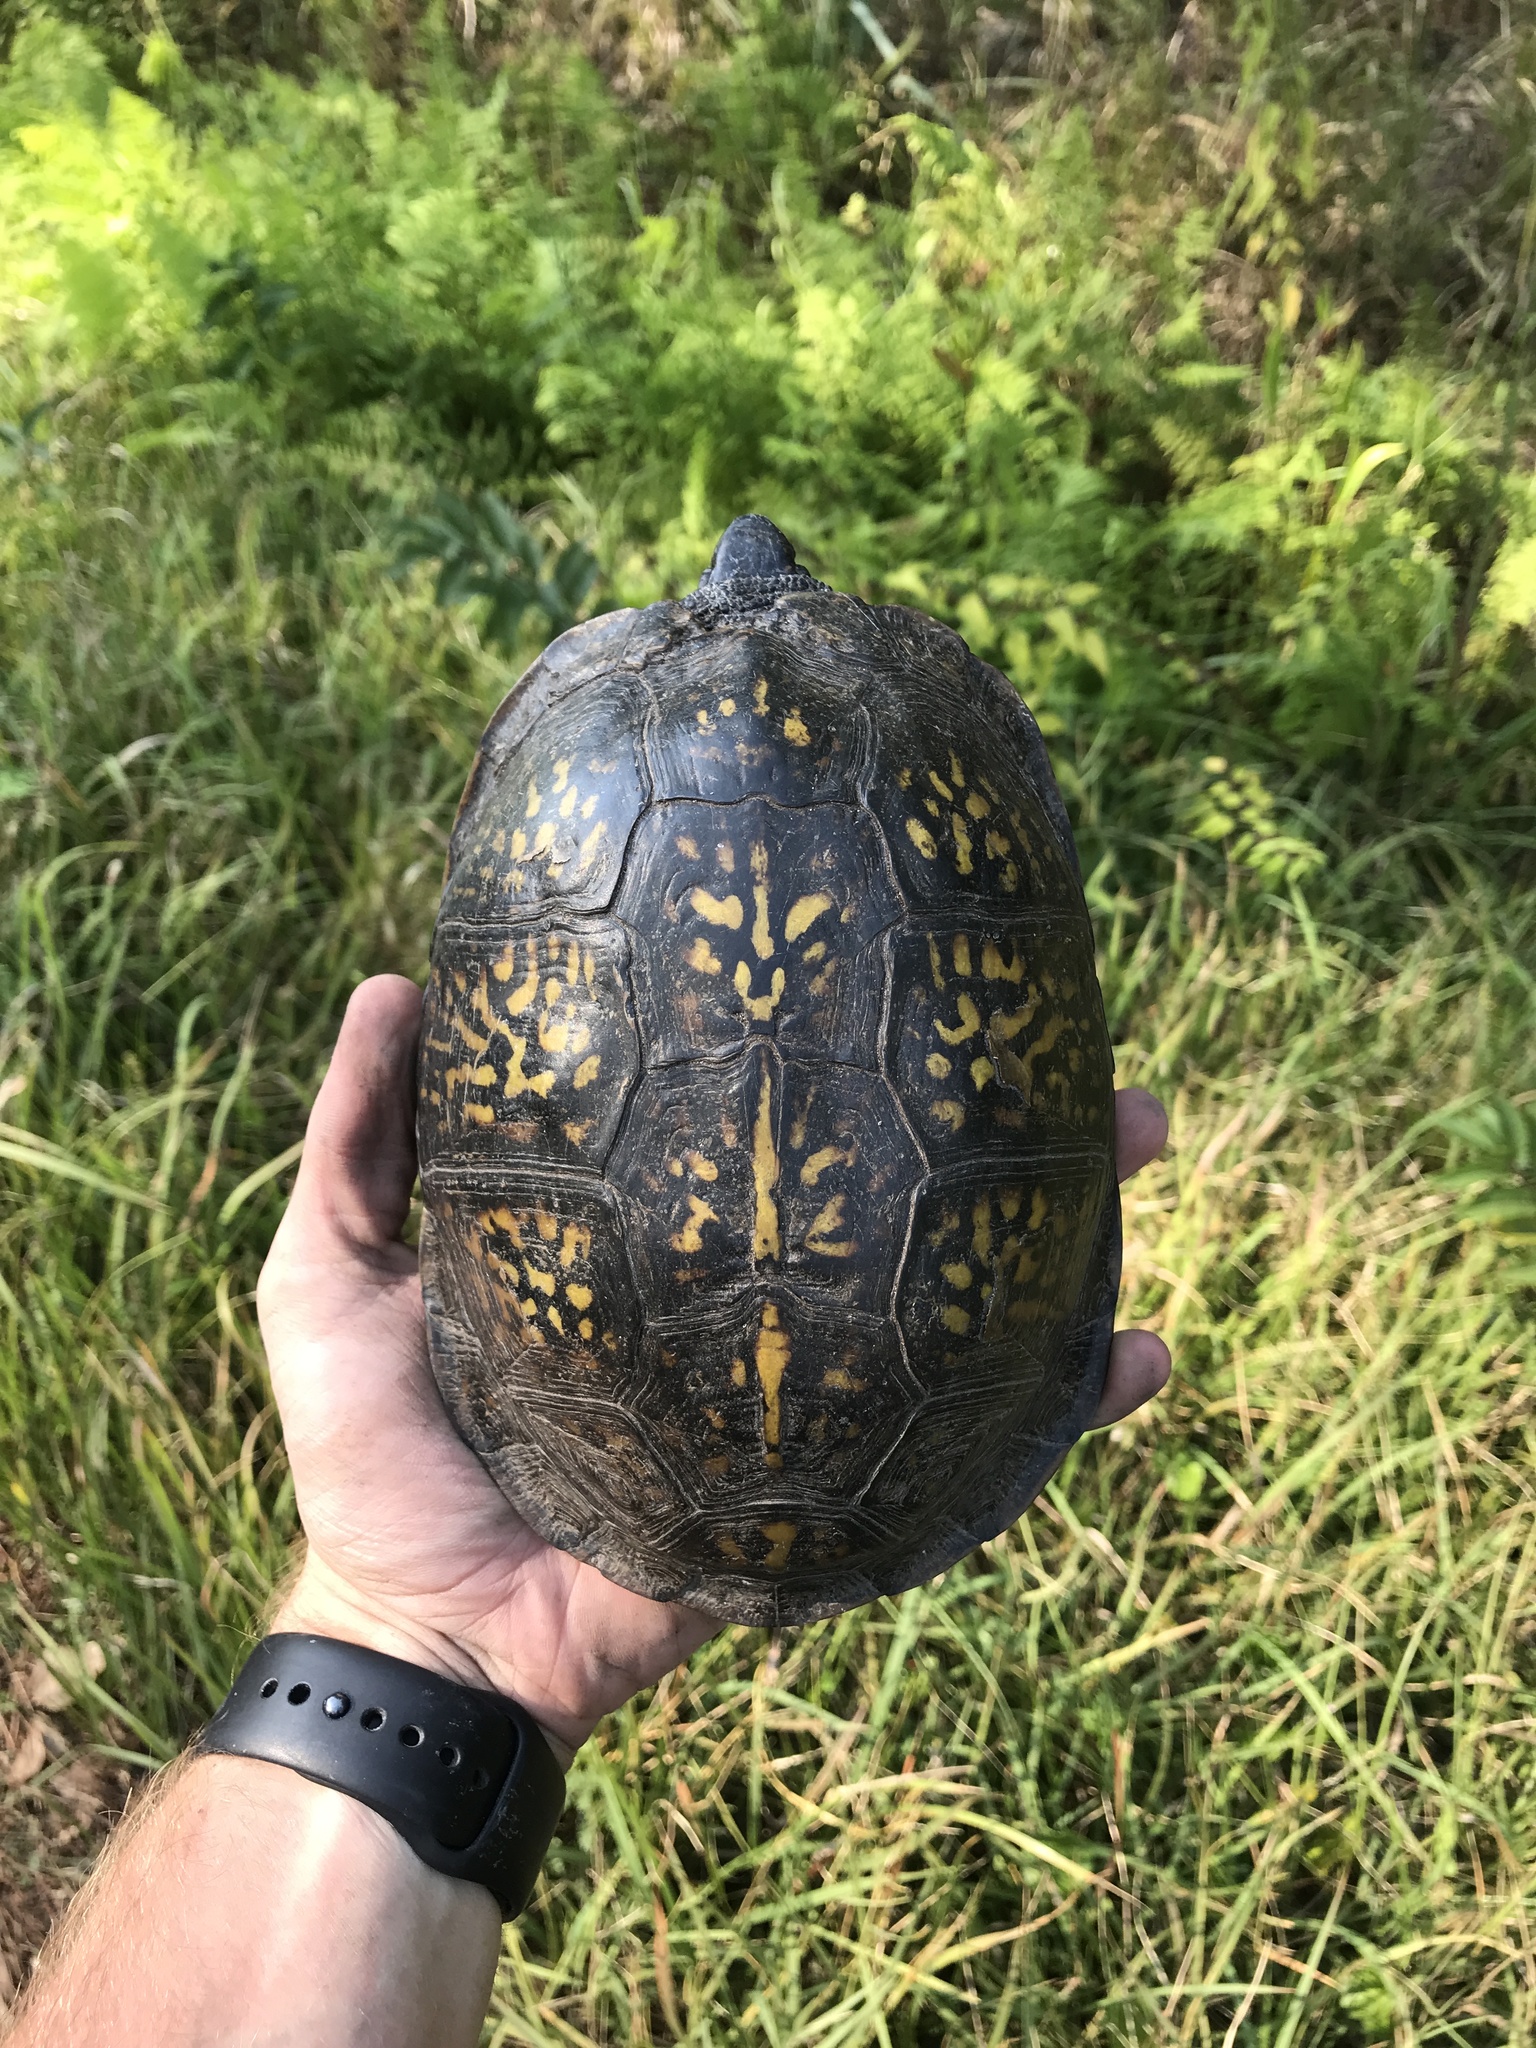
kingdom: Animalia
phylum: Chordata
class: Testudines
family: Emydidae
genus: Terrapene
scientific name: Terrapene carolina
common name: Common box turtle
